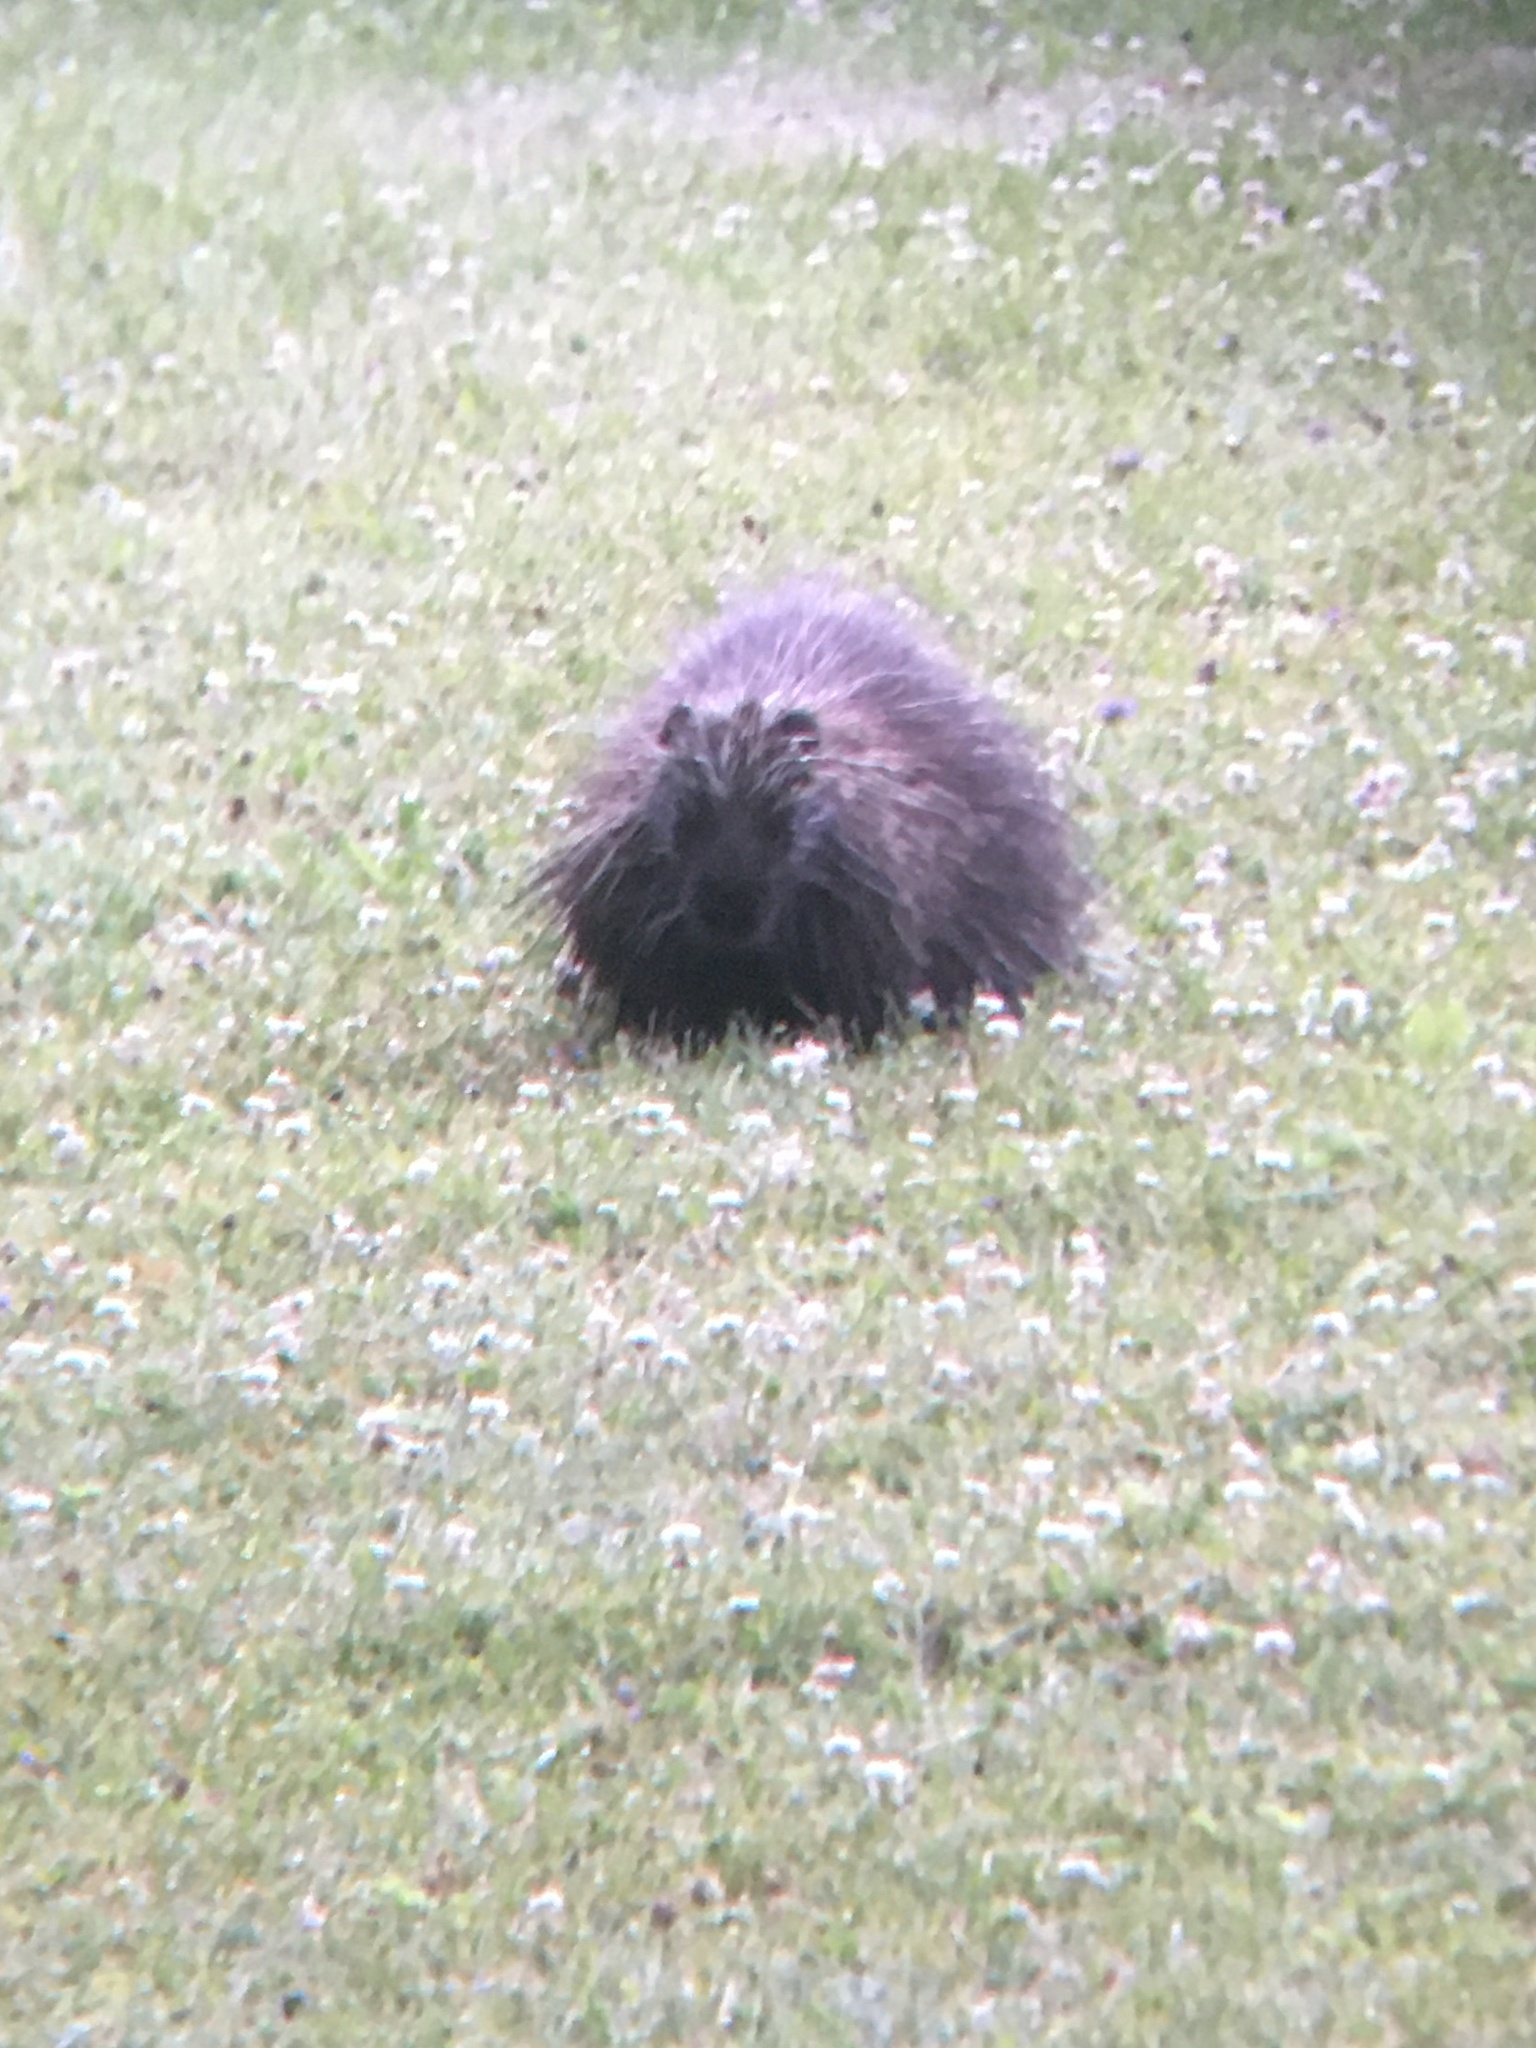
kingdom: Animalia
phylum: Chordata
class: Mammalia
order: Rodentia
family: Erethizontidae
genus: Erethizon
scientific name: Erethizon dorsatus
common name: North american porcupine
